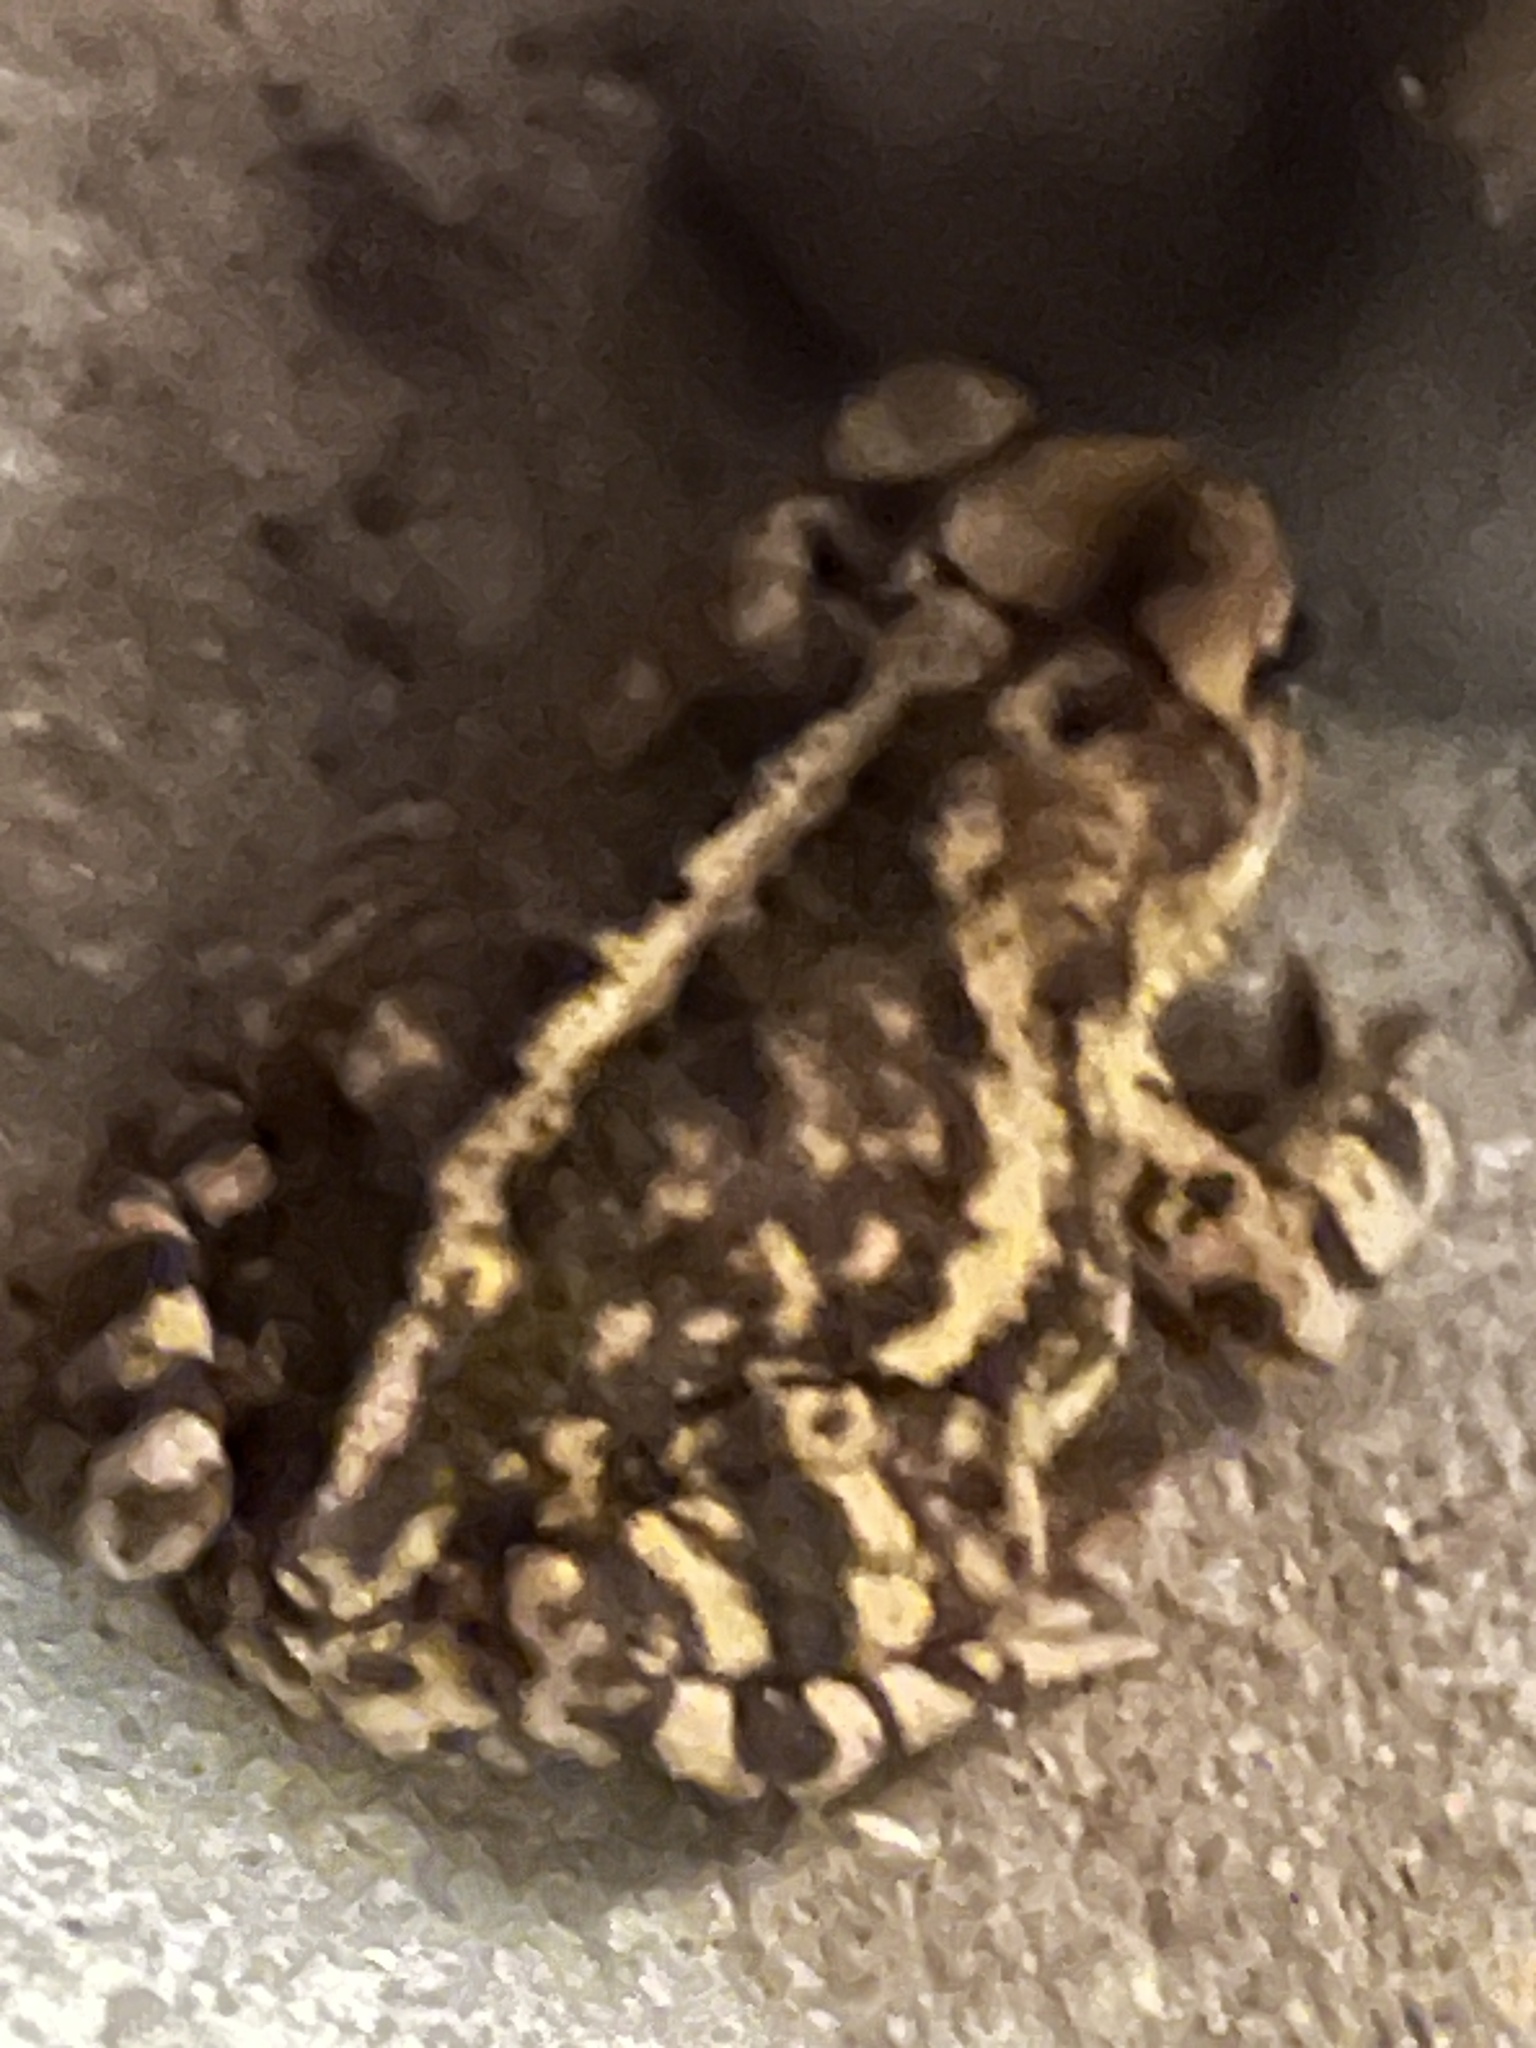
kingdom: Animalia
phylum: Chordata
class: Amphibia
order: Anura
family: Bufonidae
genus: Incilius
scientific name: Incilius nebulifer
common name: Gulf coast toad
